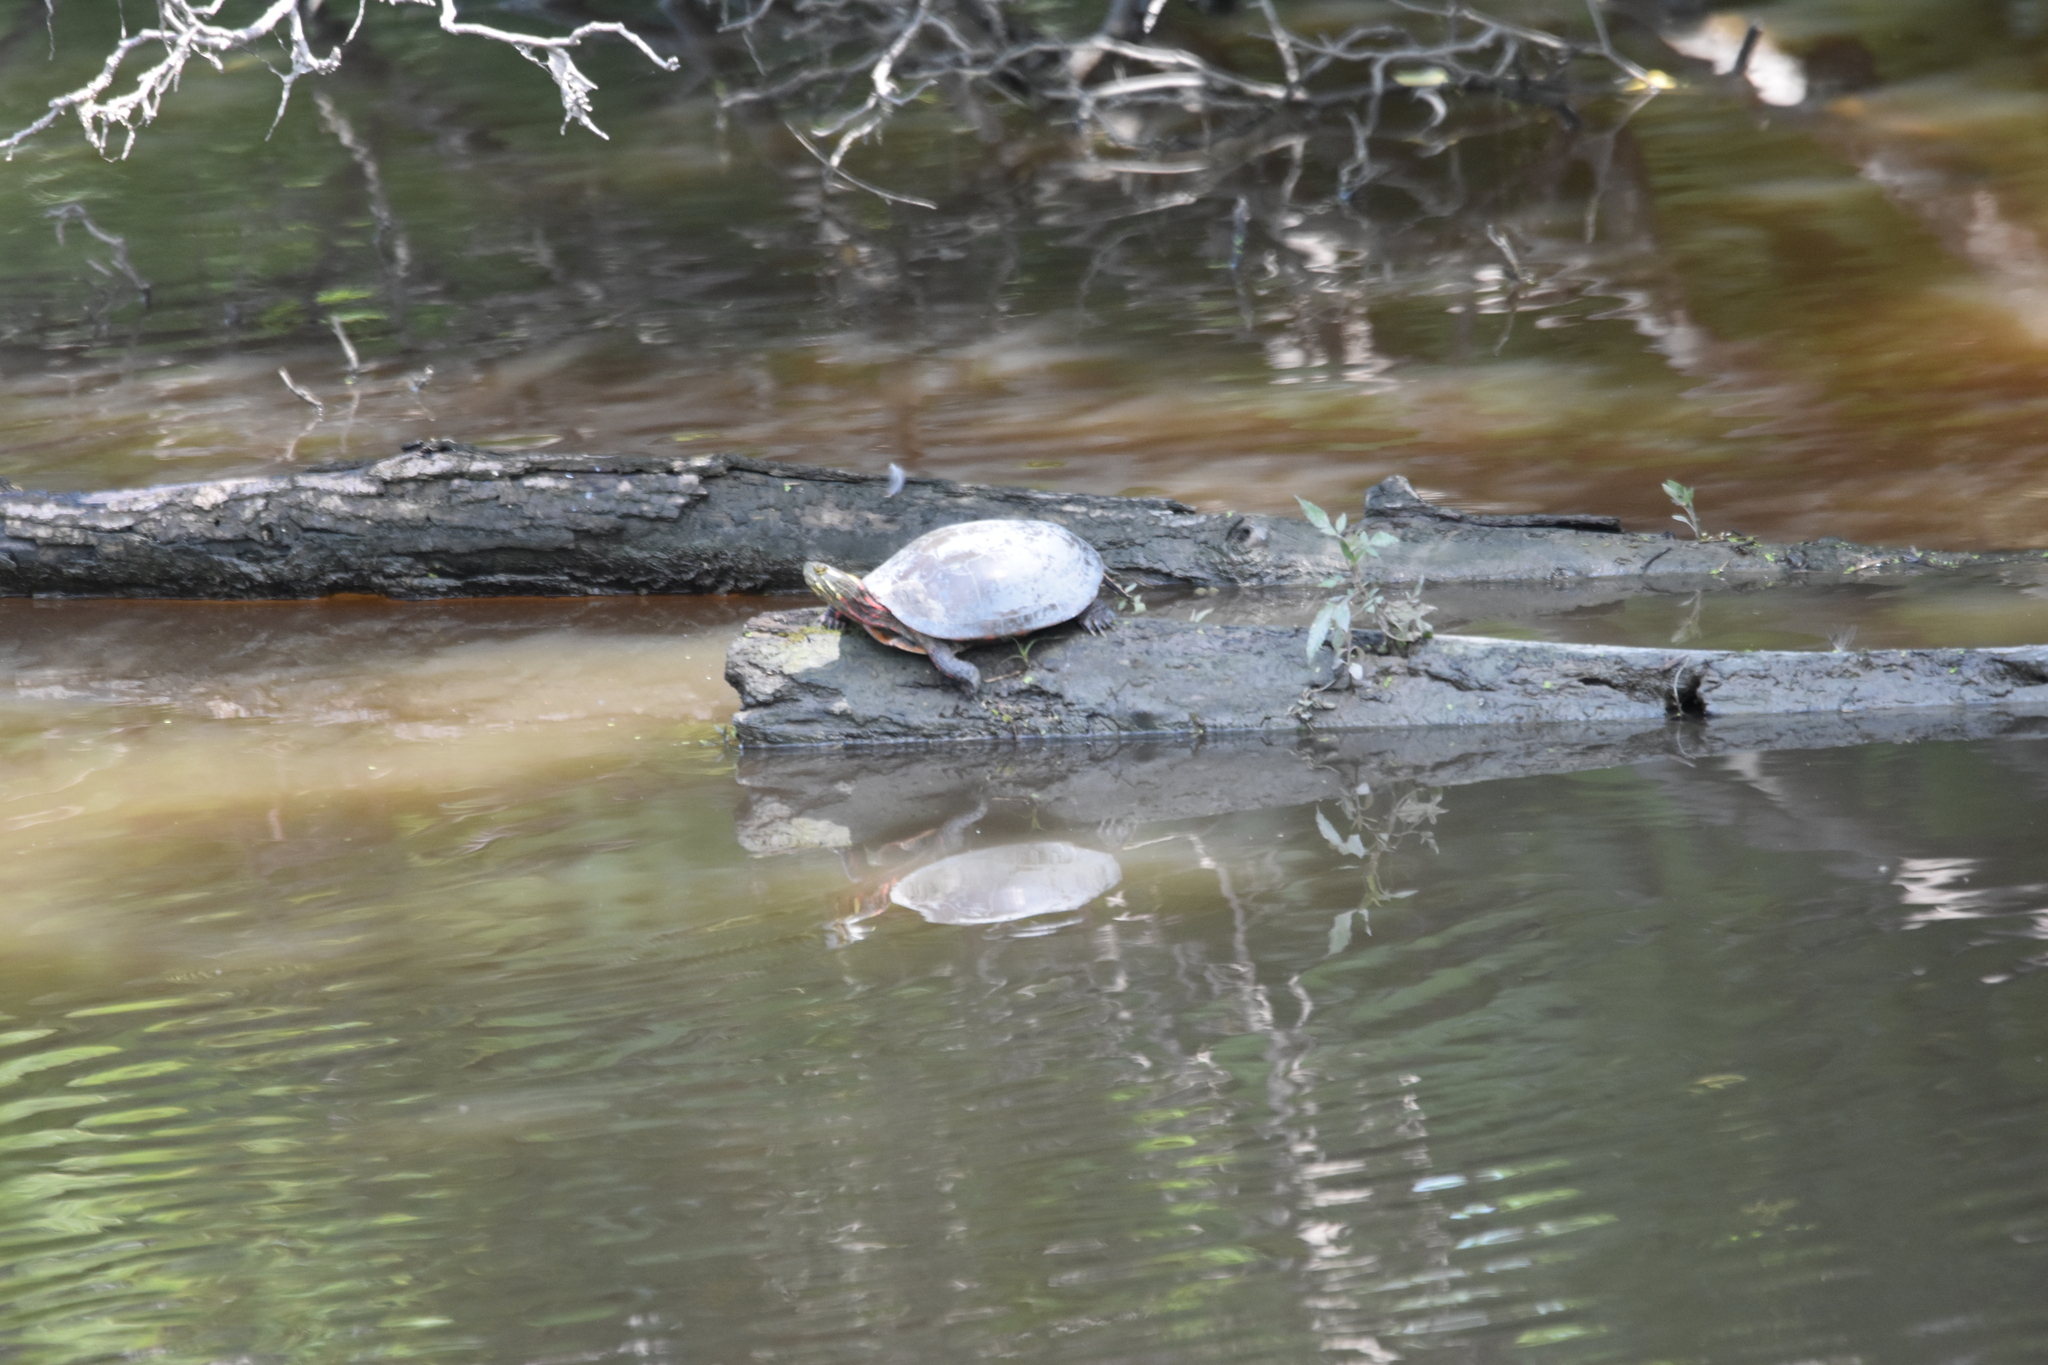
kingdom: Animalia
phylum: Chordata
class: Testudines
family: Emydidae
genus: Chrysemys
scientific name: Chrysemys picta
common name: Painted turtle
